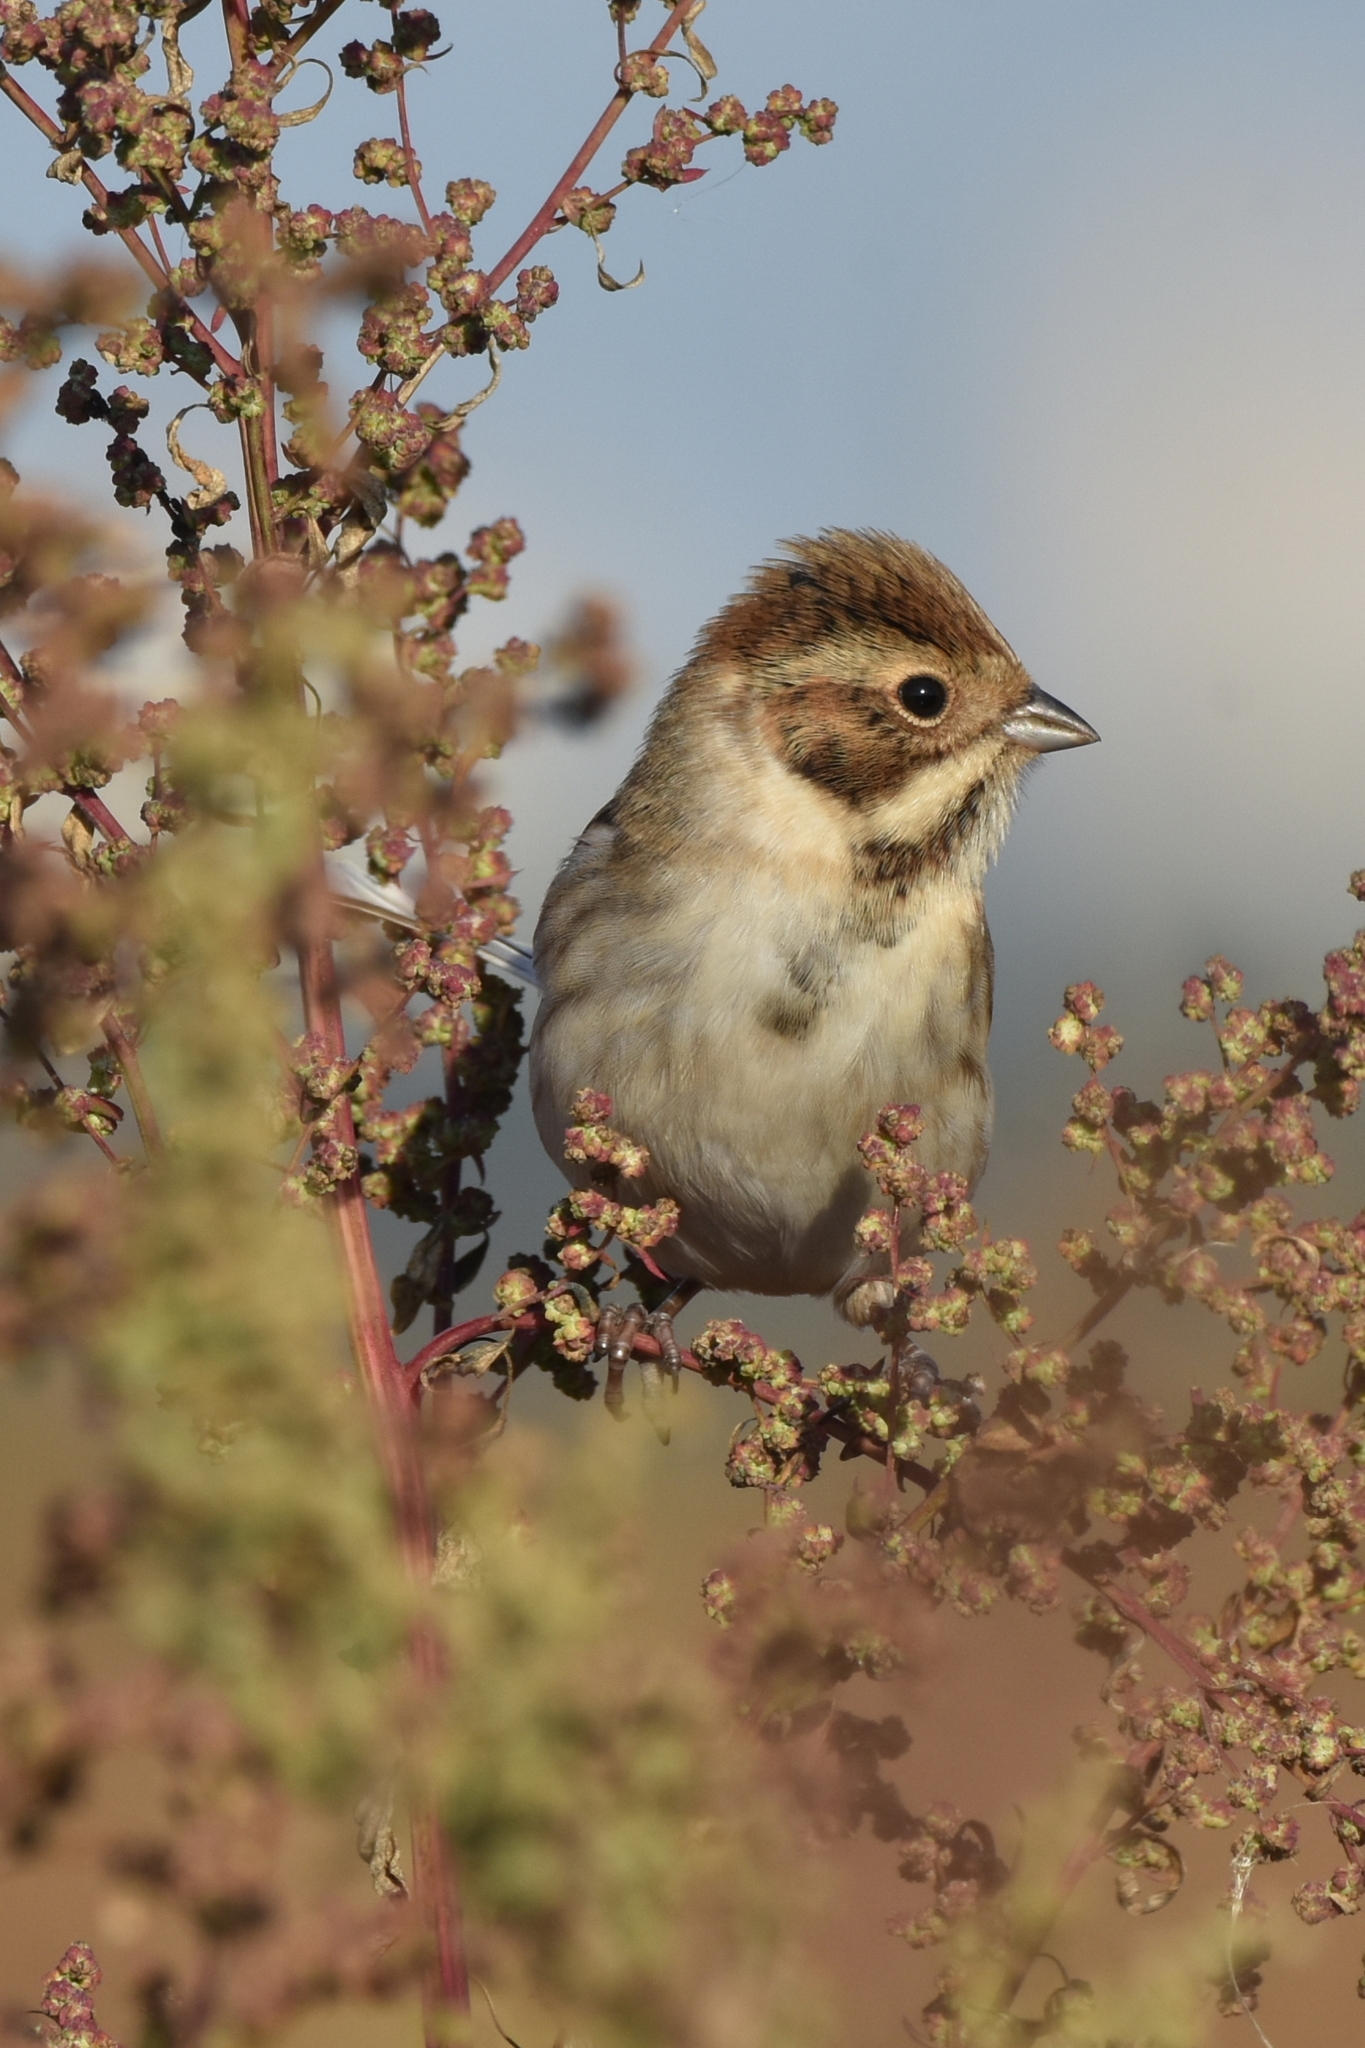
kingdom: Animalia
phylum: Chordata
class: Aves
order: Passeriformes
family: Emberizidae
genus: Emberiza
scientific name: Emberiza schoeniclus
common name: Reed bunting
